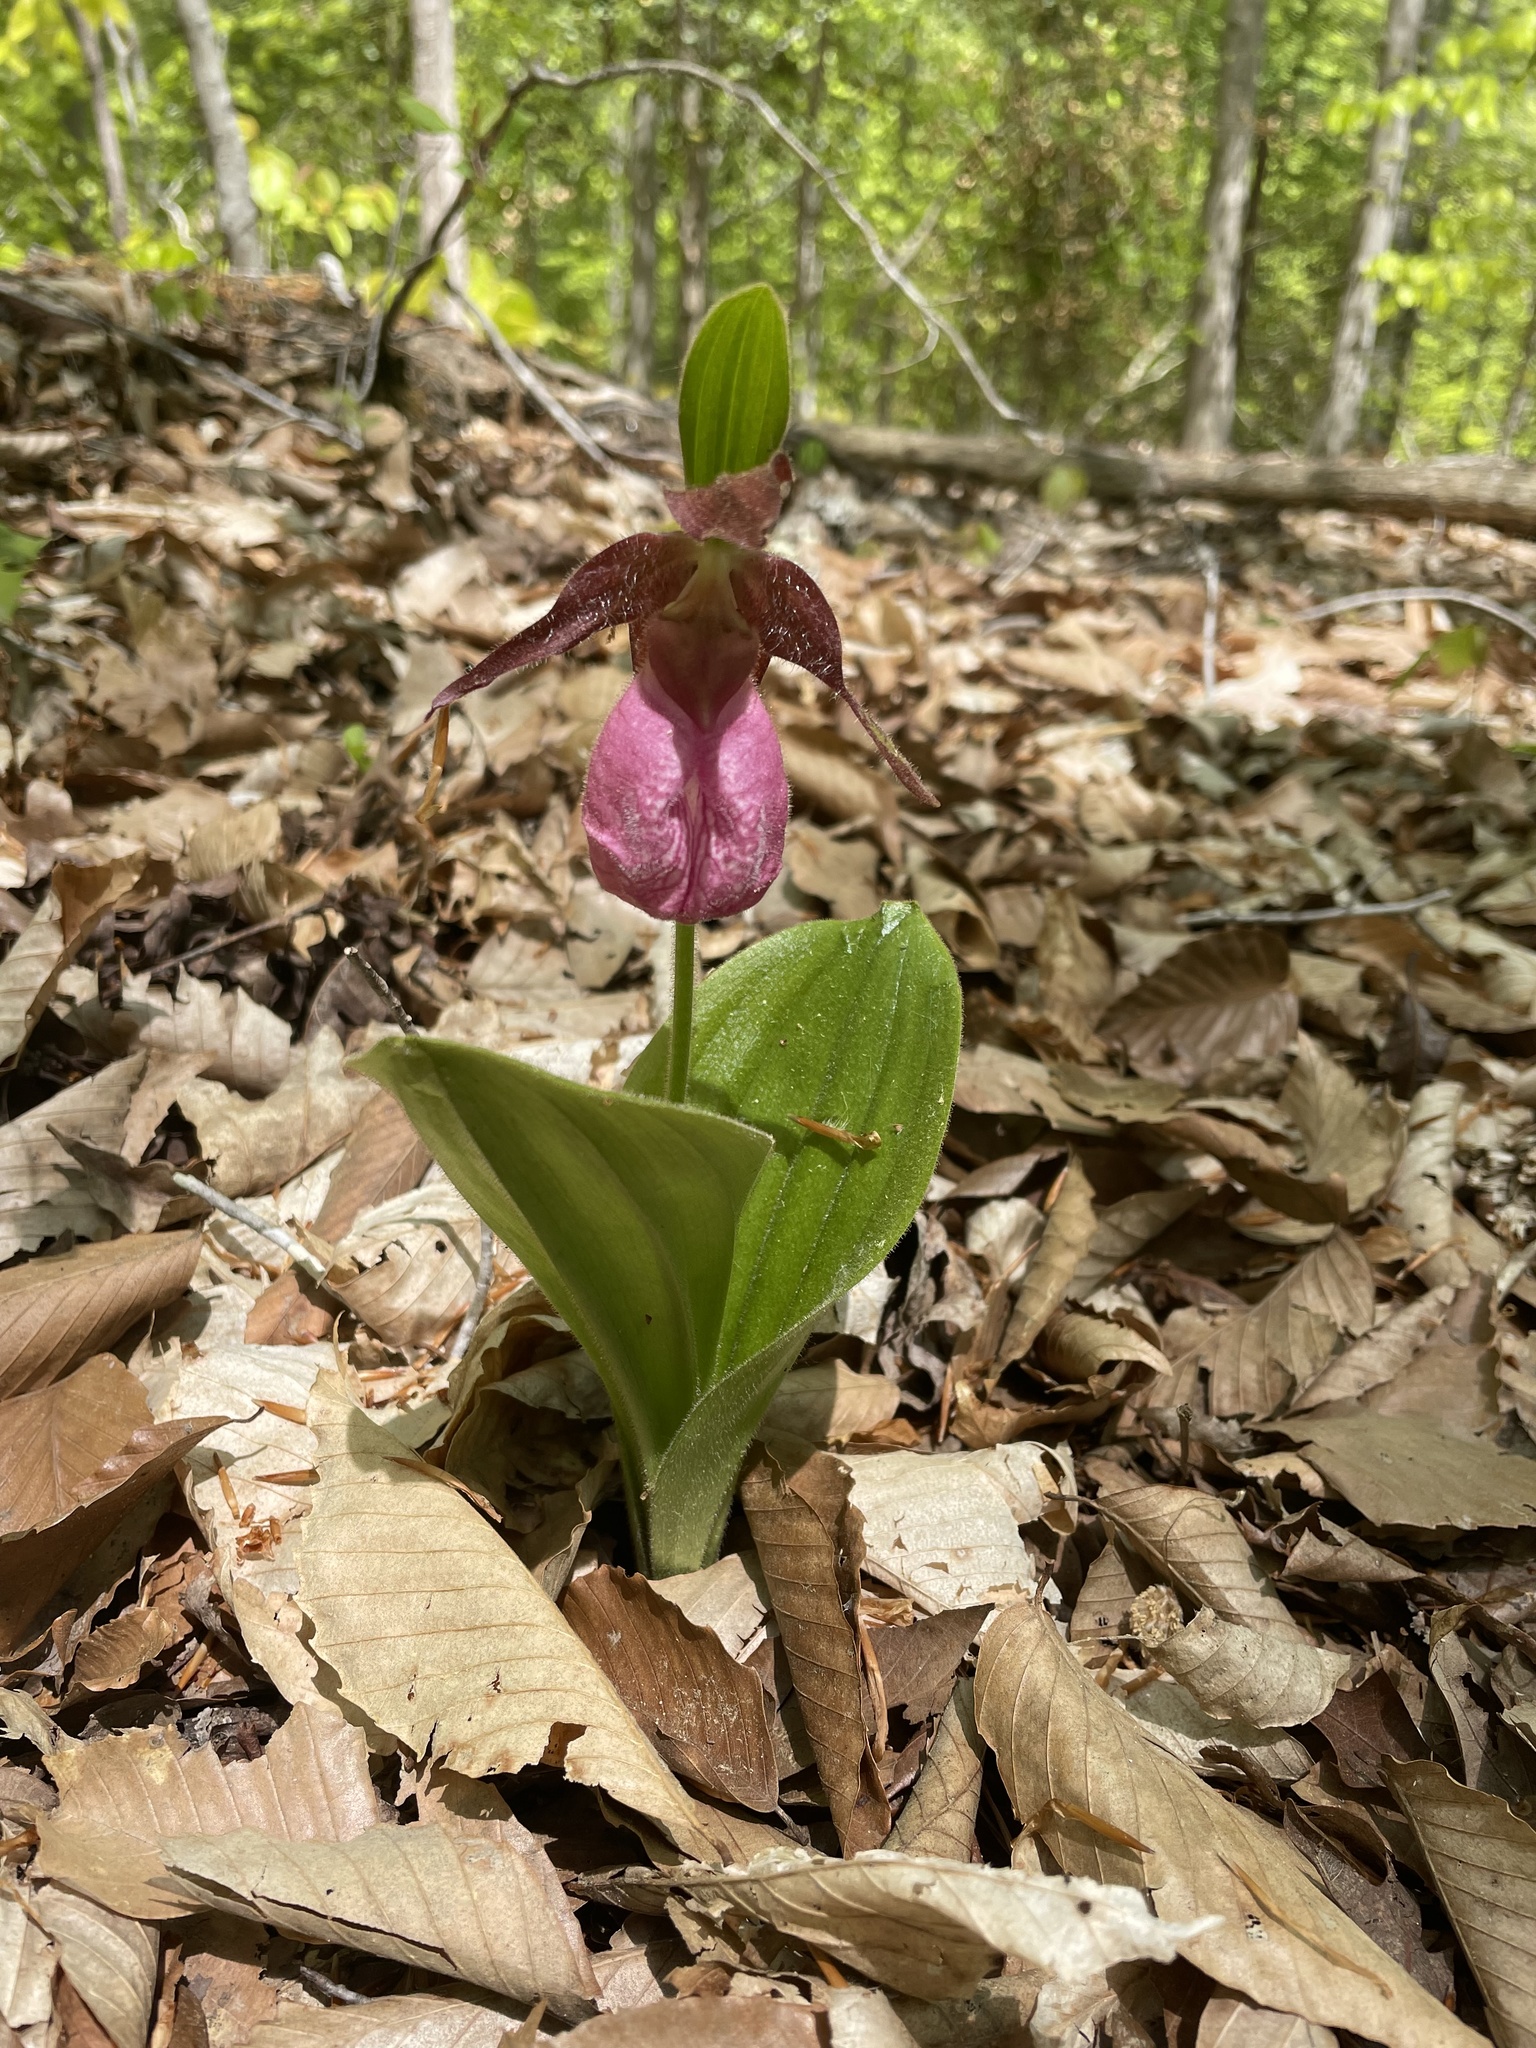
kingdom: Plantae
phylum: Tracheophyta
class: Liliopsida
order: Asparagales
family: Orchidaceae
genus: Cypripedium
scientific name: Cypripedium acaule
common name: Pink lady's-slipper
